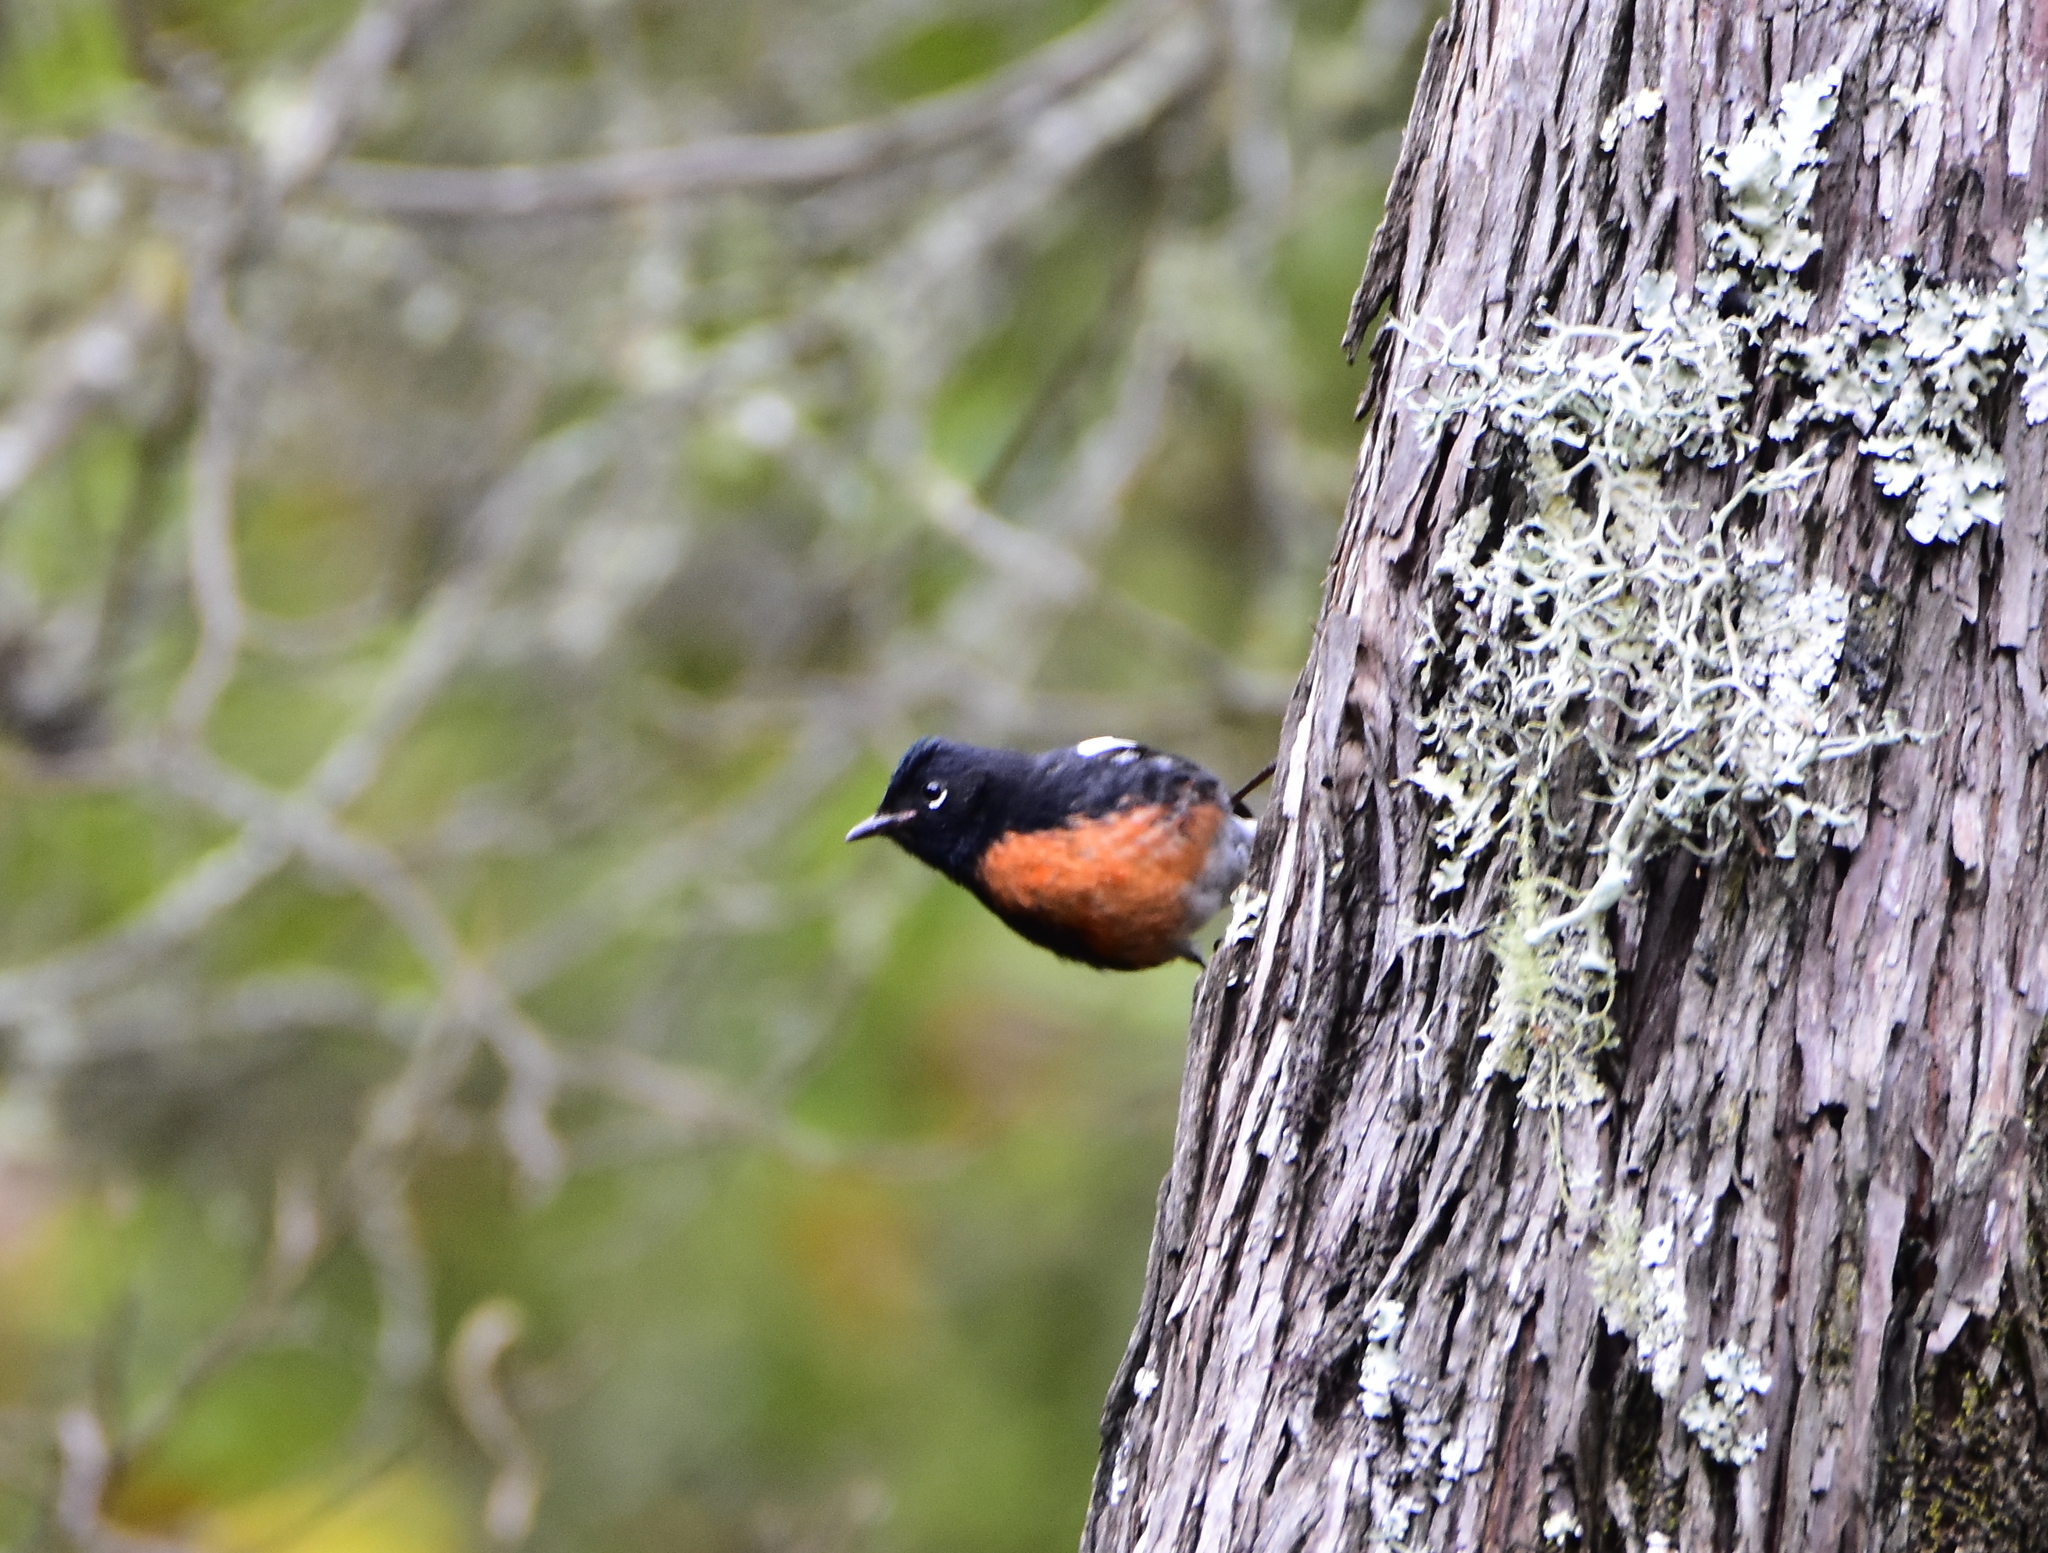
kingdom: Animalia
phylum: Chordata
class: Aves
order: Passeriformes
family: Parulidae
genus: Myioborus
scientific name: Myioborus pictus
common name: Painted whitestart
